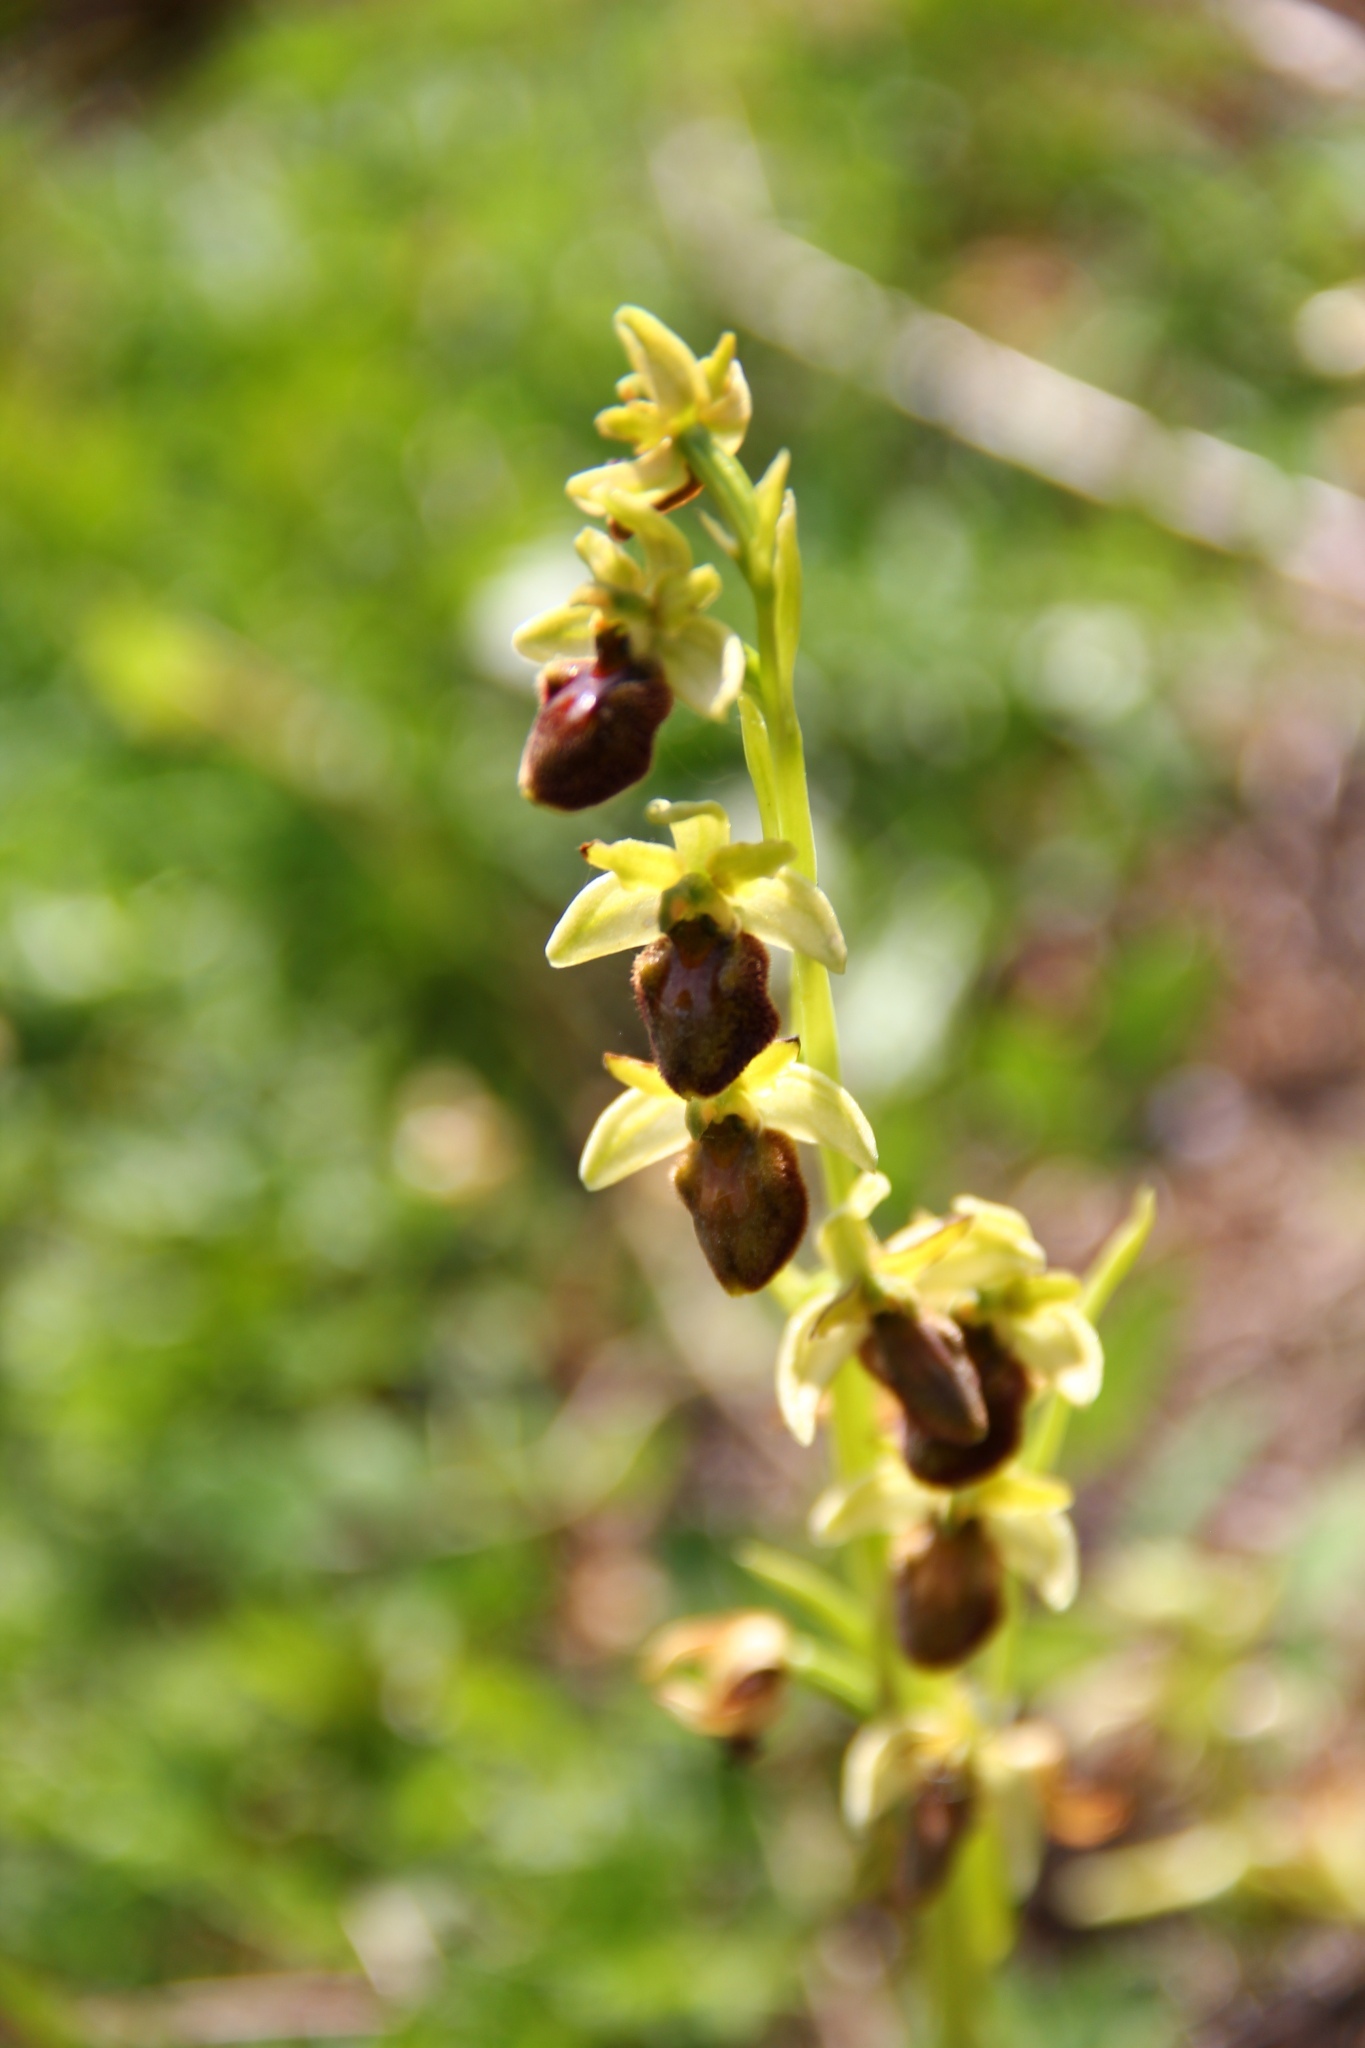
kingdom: Plantae
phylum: Tracheophyta
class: Liliopsida
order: Asparagales
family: Orchidaceae
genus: Ophrys
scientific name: Ophrys sphegodes
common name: Early spider-orchid
